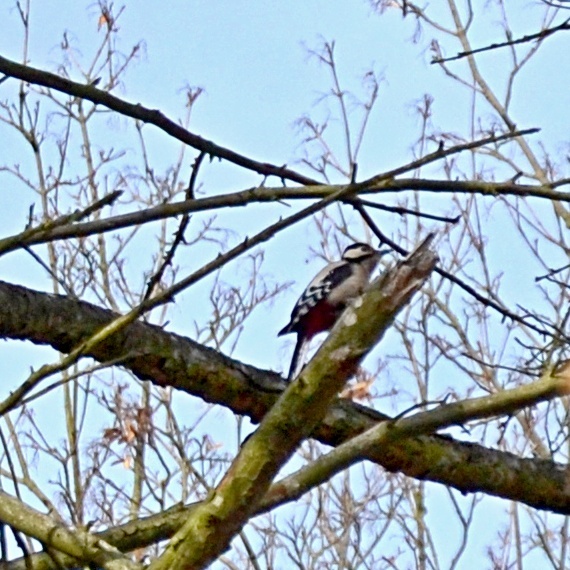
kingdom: Animalia
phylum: Chordata
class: Aves
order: Piciformes
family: Picidae
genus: Dendrocopos
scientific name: Dendrocopos major
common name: Great spotted woodpecker
